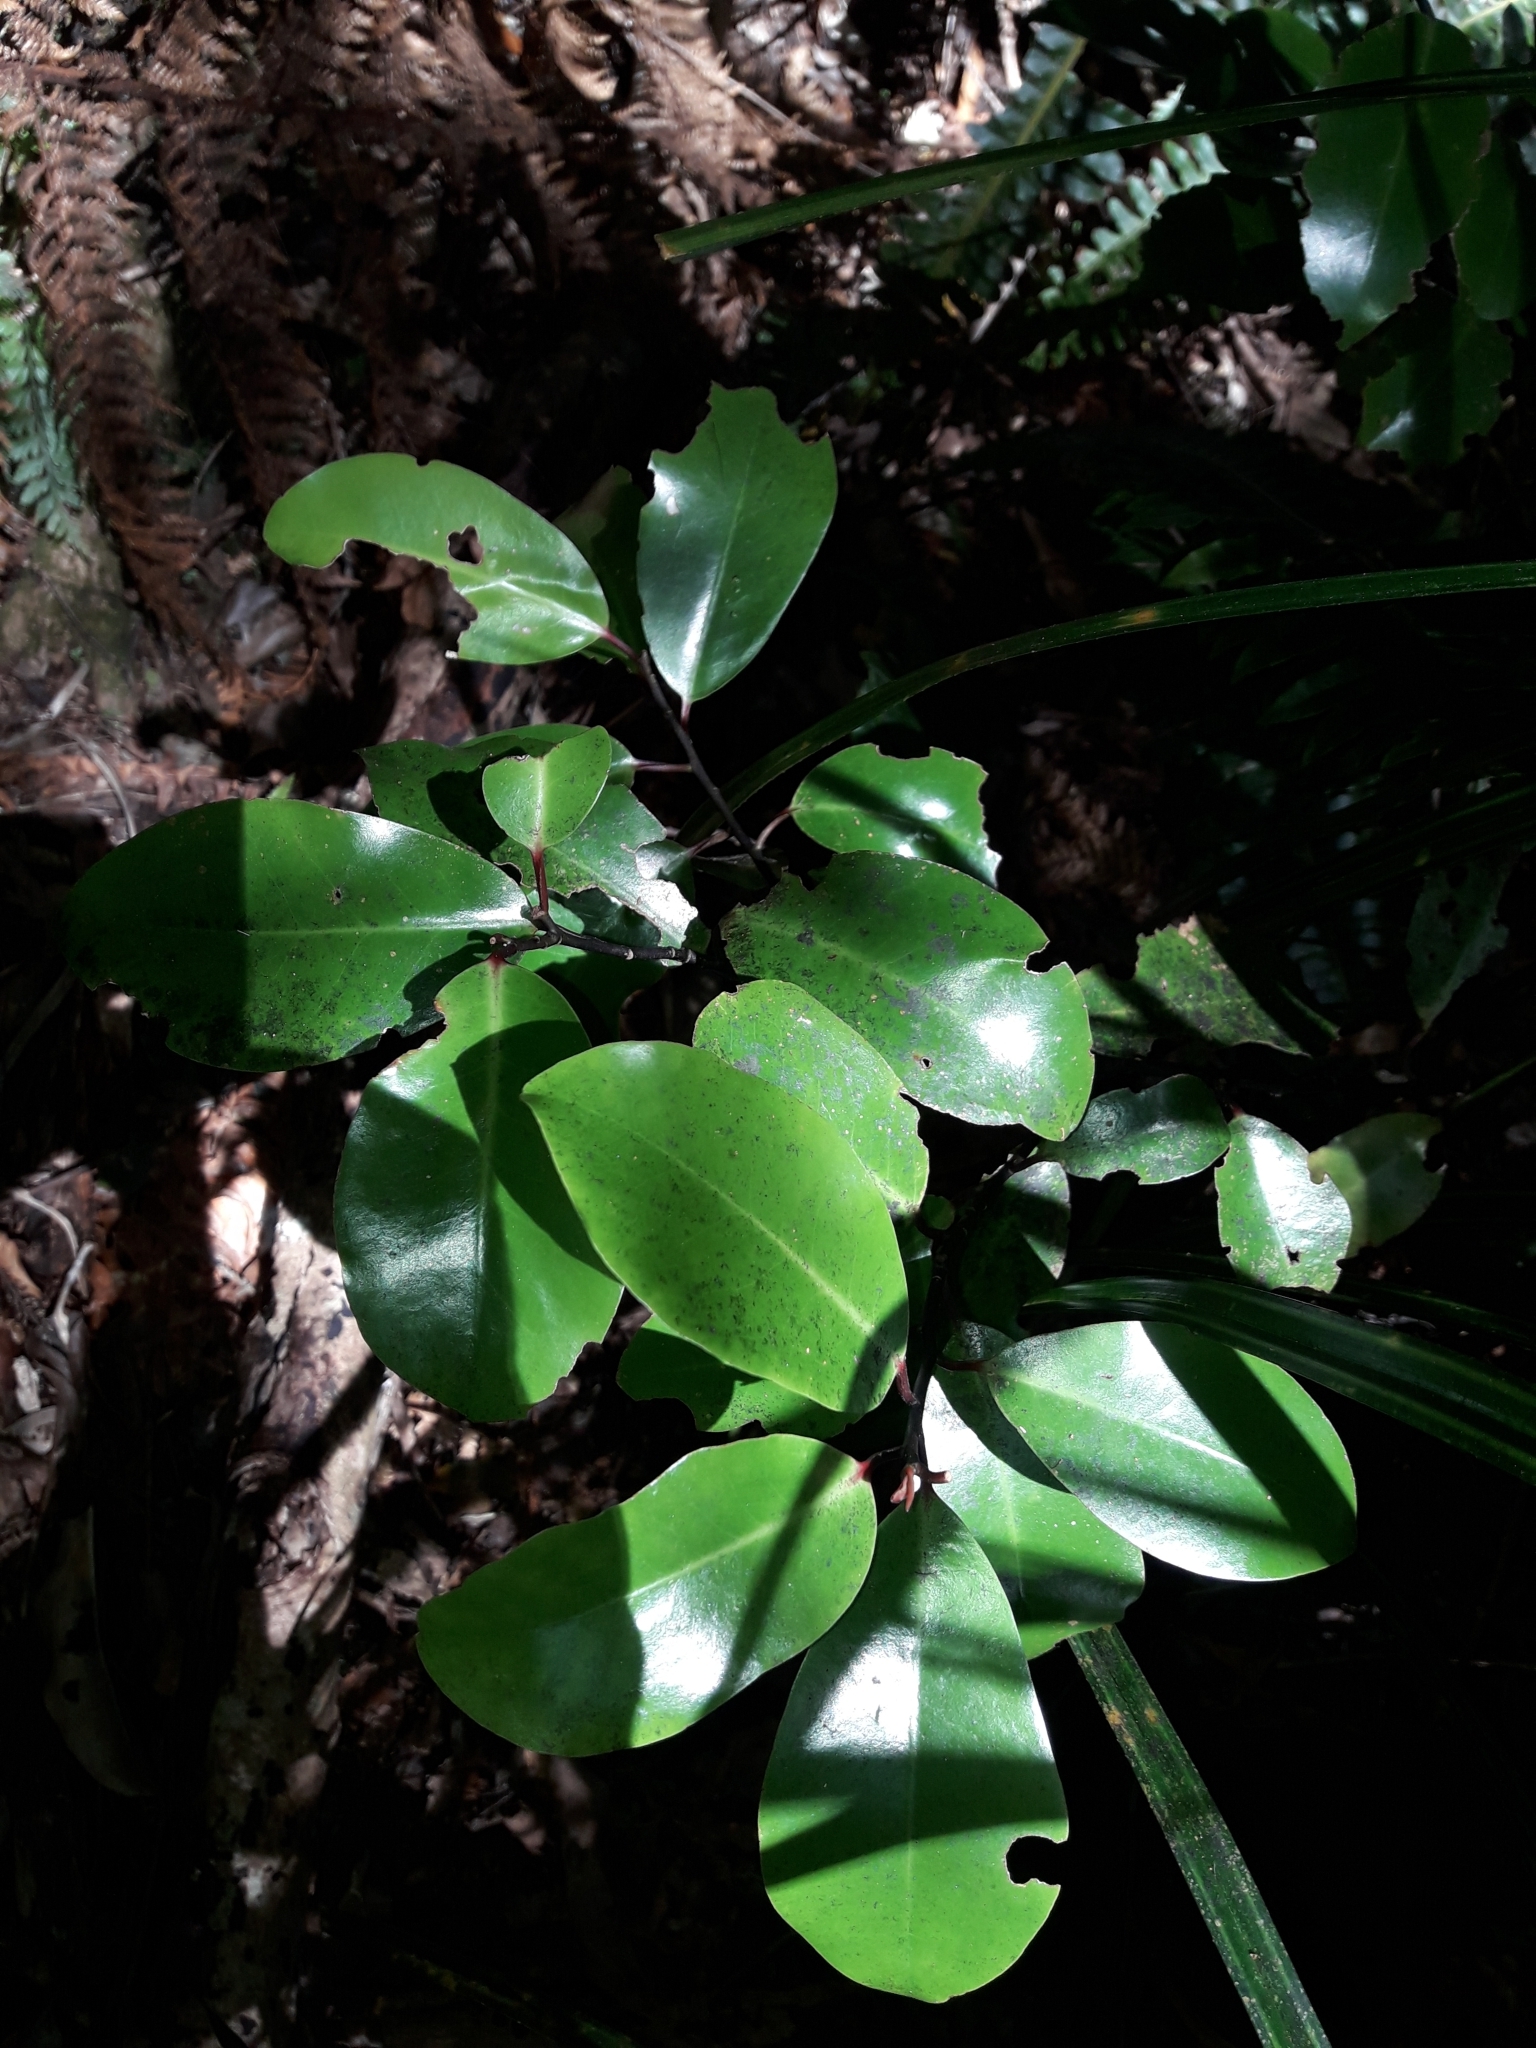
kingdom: Plantae
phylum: Tracheophyta
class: Magnoliopsida
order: Canellales
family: Winteraceae
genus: Pseudowintera
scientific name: Pseudowintera axillaris
